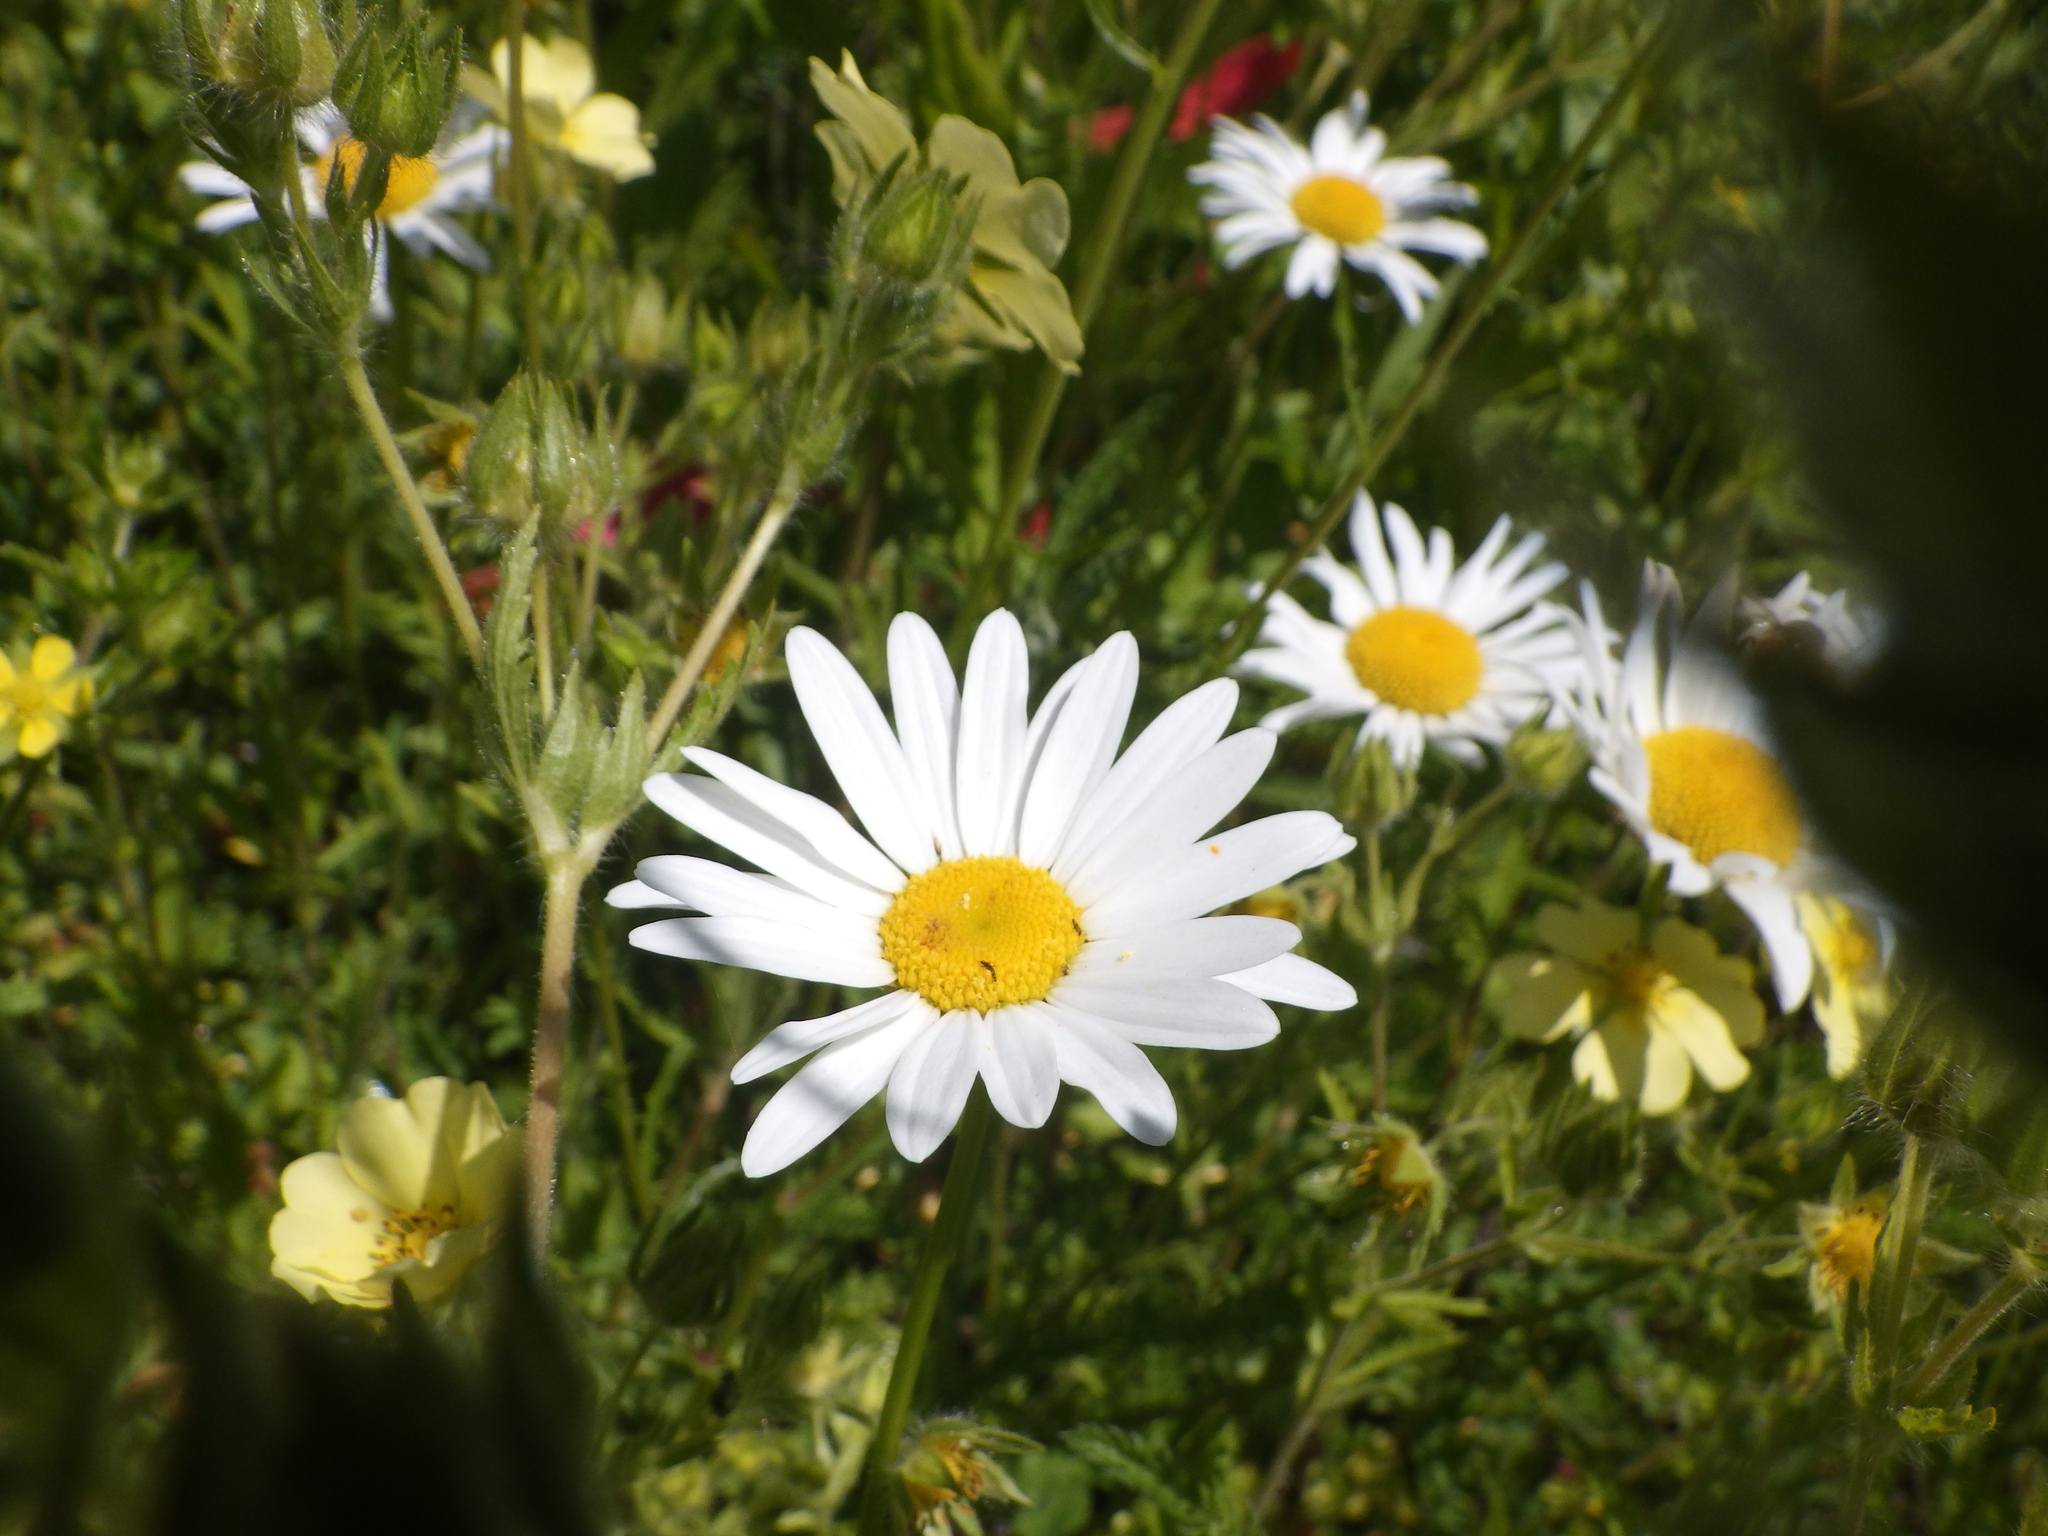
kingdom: Plantae
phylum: Tracheophyta
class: Magnoliopsida
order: Asterales
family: Asteraceae
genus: Leucanthemum
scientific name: Leucanthemum vulgare
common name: Oxeye daisy
